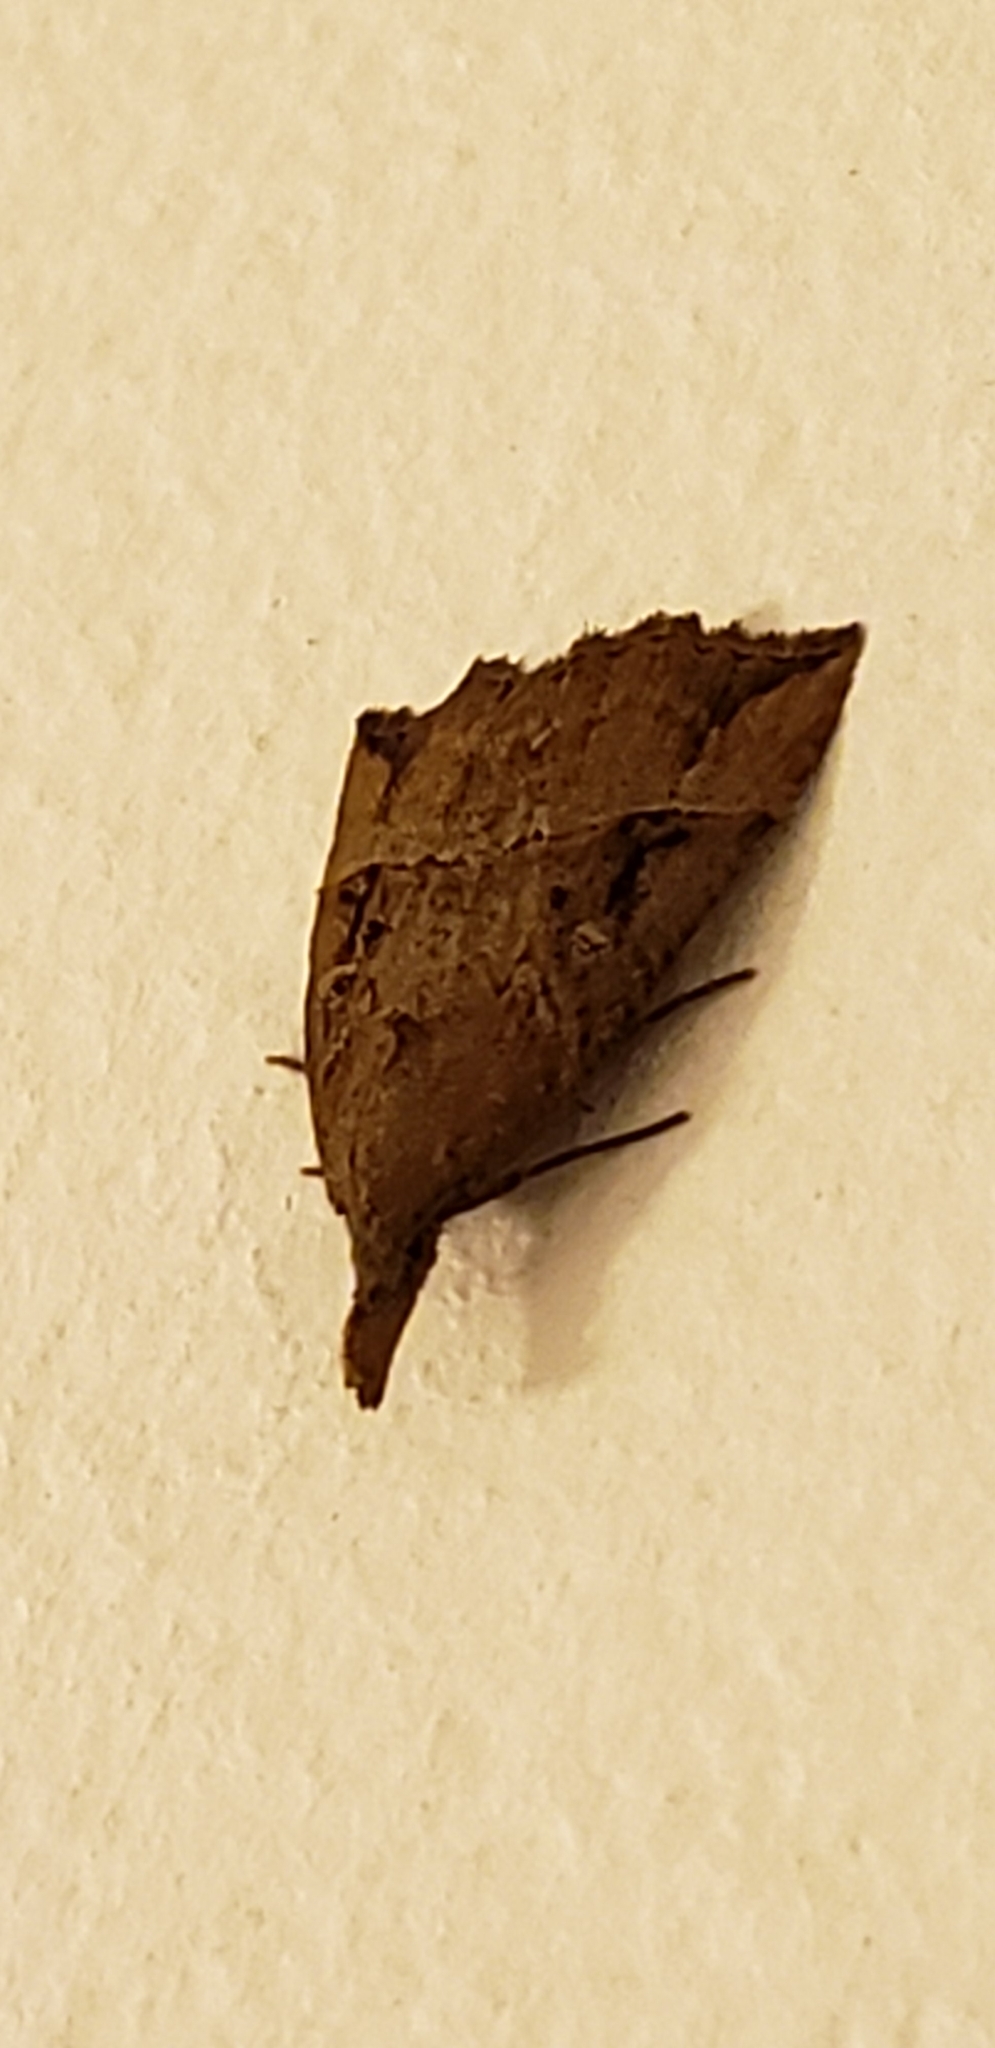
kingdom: Animalia
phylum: Arthropoda
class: Insecta
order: Lepidoptera
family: Erebidae
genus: Hypena
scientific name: Hypena rostralis
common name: Buttoned snout
